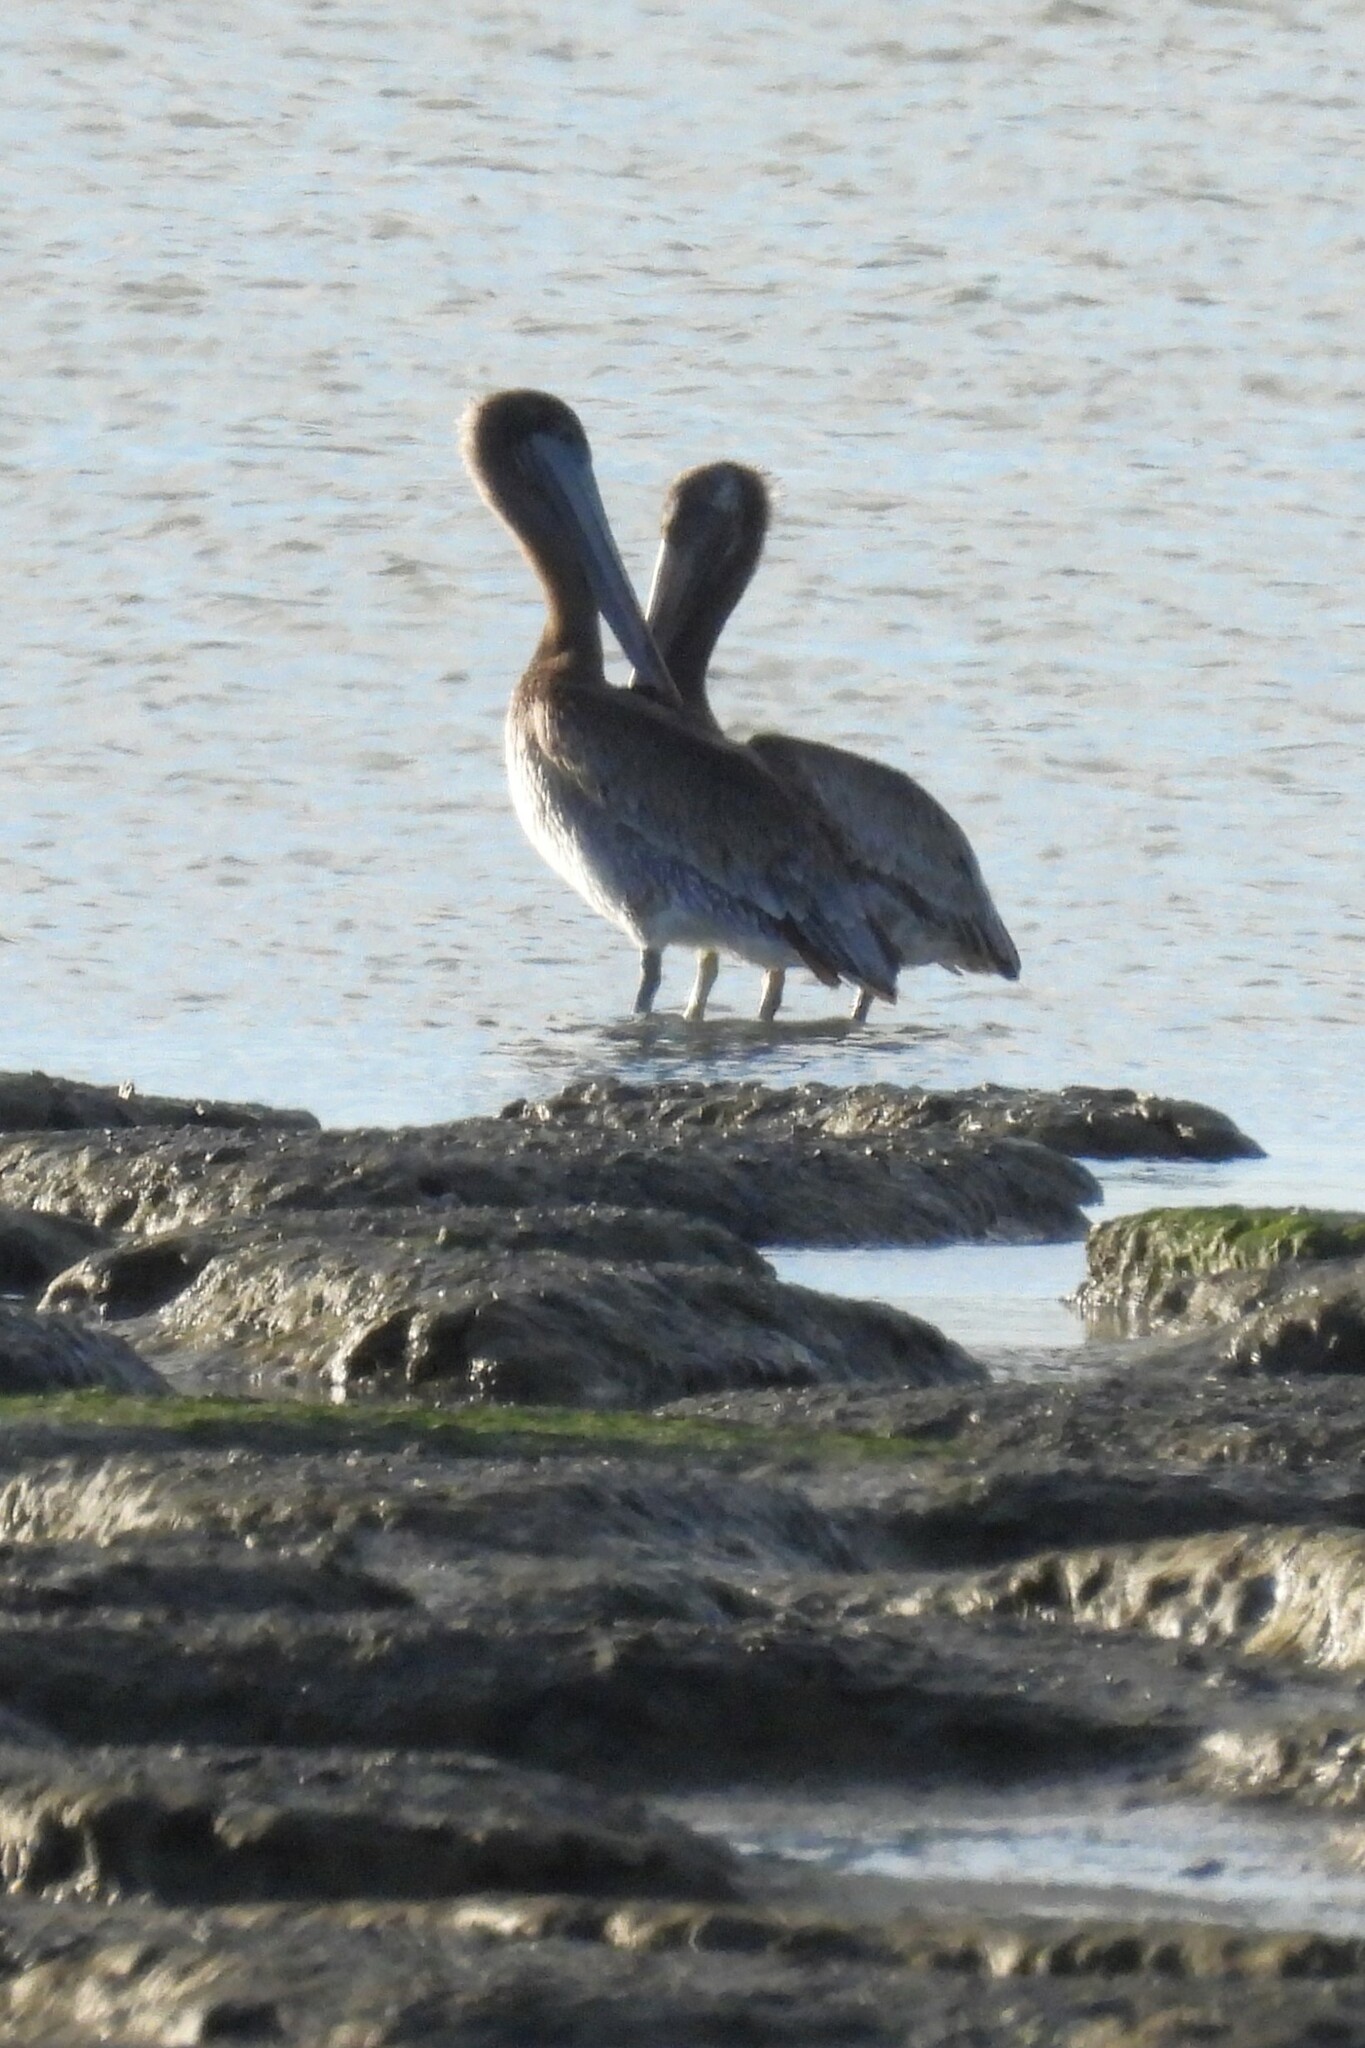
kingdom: Animalia
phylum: Chordata
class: Aves
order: Pelecaniformes
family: Pelecanidae
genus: Pelecanus
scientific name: Pelecanus occidentalis
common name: Brown pelican
